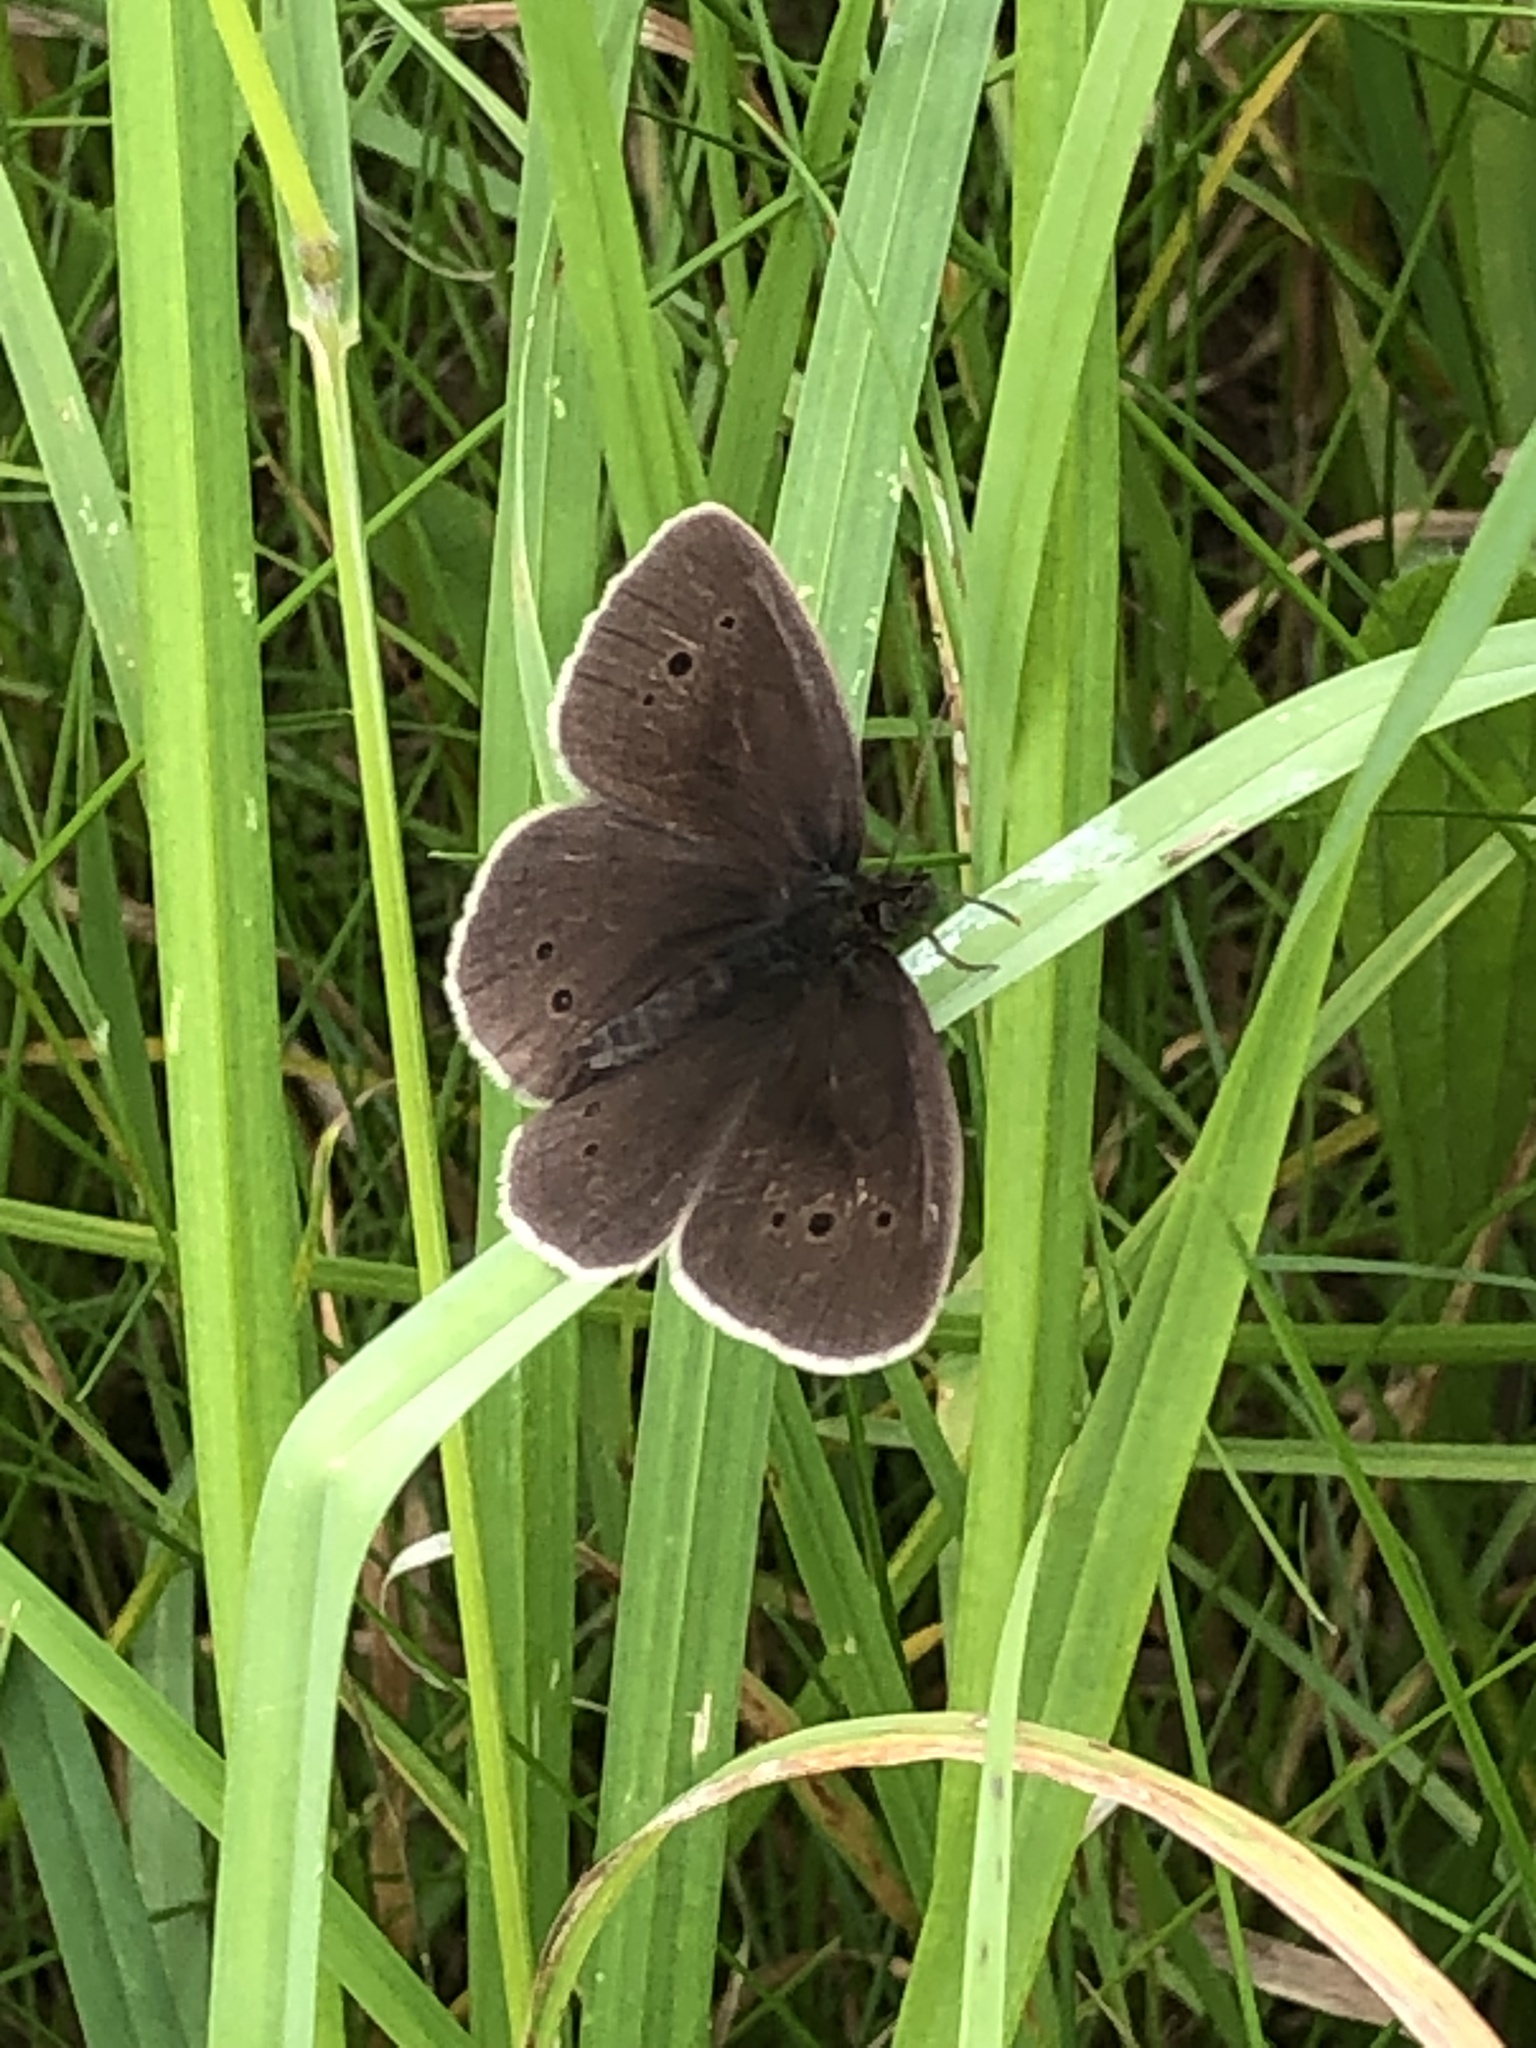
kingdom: Animalia
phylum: Arthropoda
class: Insecta
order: Lepidoptera
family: Nymphalidae
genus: Aphantopus
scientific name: Aphantopus hyperantus
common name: Ringlet
